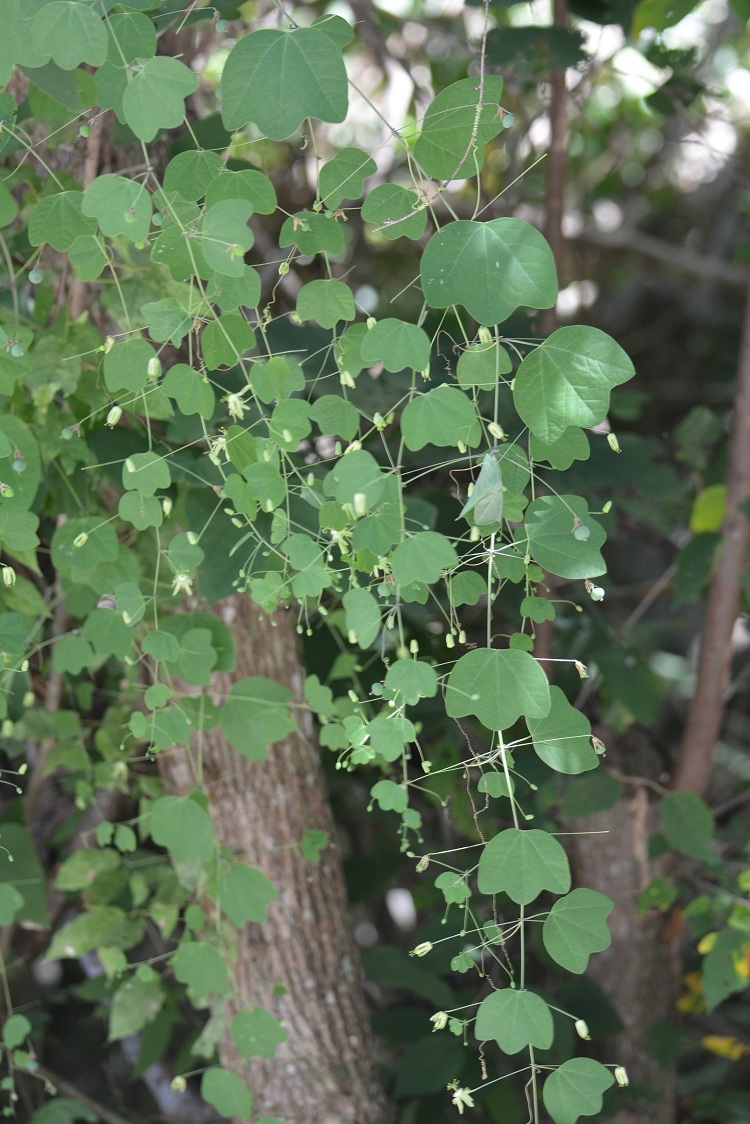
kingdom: Plantae
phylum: Tracheophyta
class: Magnoliopsida
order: Malpighiales
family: Passifloraceae
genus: Passiflora
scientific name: Passiflora filipes
